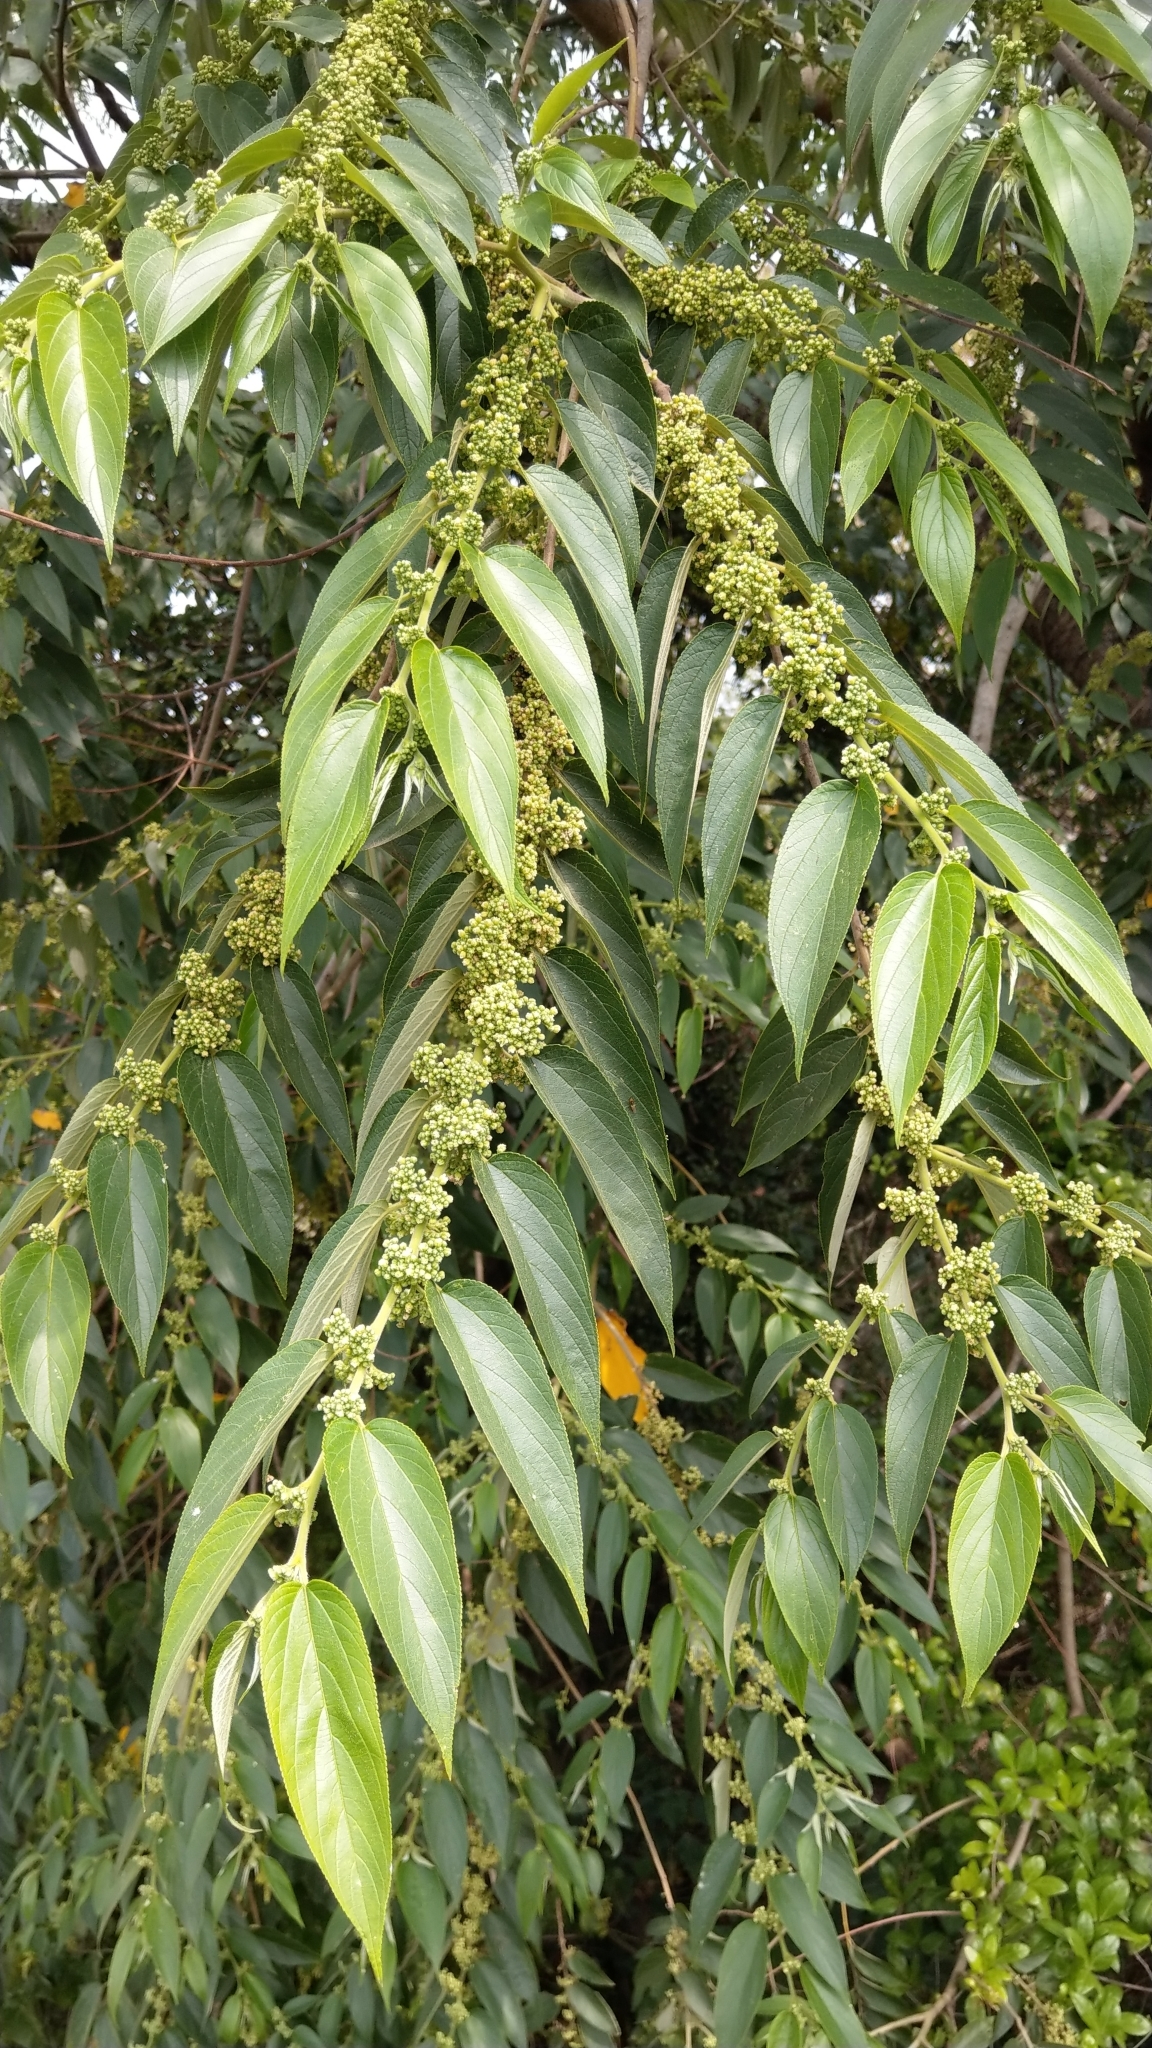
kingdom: Plantae
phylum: Tracheophyta
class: Magnoliopsida
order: Rosales
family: Cannabaceae
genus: Trema
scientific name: Trema orientale
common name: Indian charcoal tree
